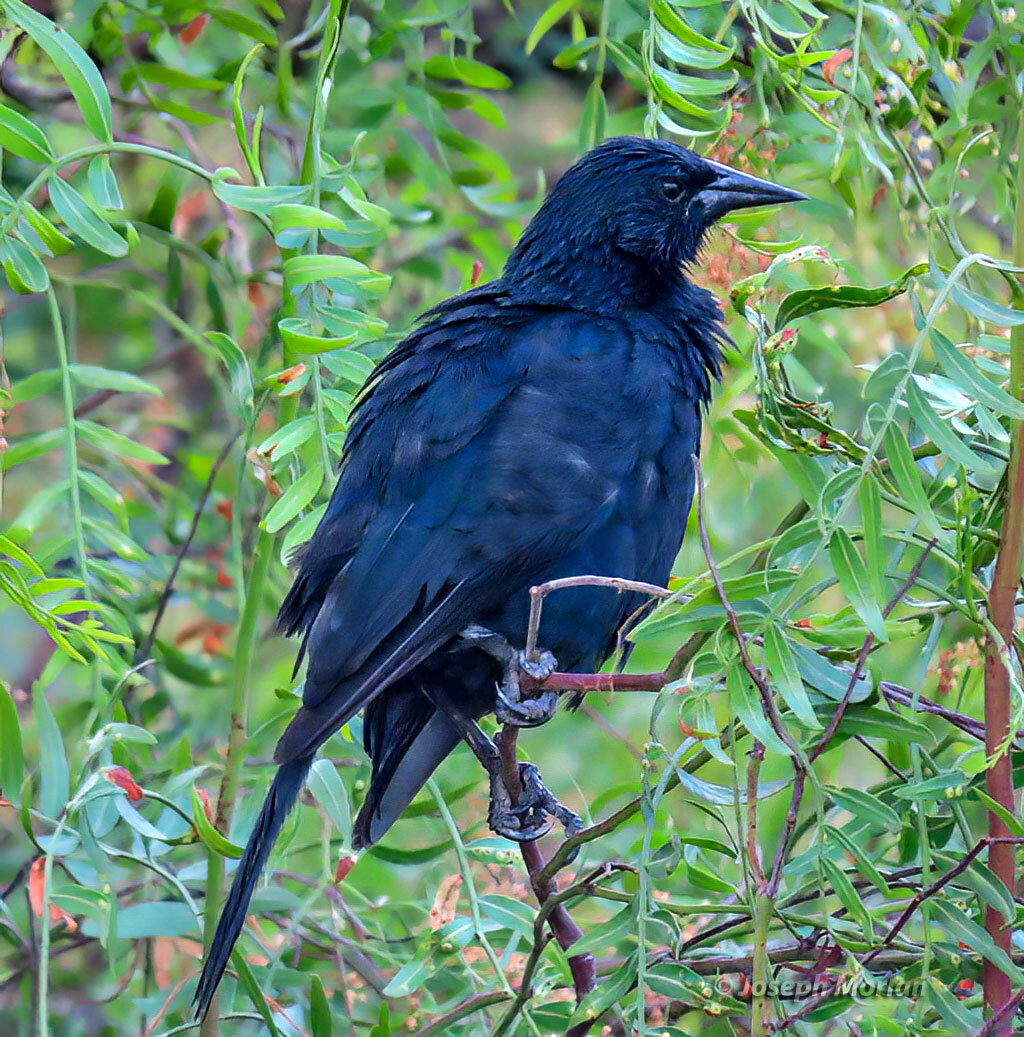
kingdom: Animalia
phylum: Chordata
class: Aves
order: Passeriformes
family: Icteridae
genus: Curaeus
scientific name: Curaeus curaeus
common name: Austral blackbird
